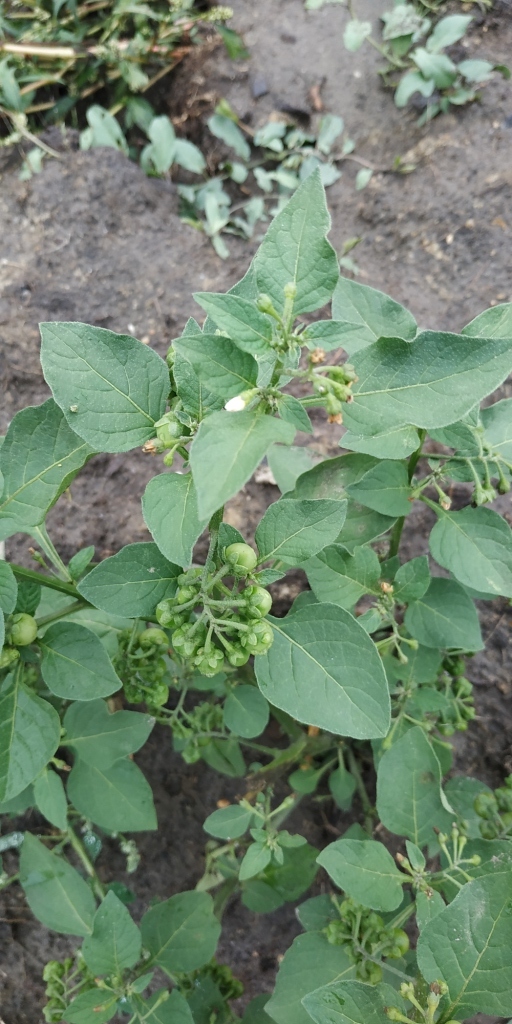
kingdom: Plantae
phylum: Tracheophyta
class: Magnoliopsida
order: Solanales
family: Solanaceae
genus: Solanum
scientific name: Solanum nigrum
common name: Black nightshade
